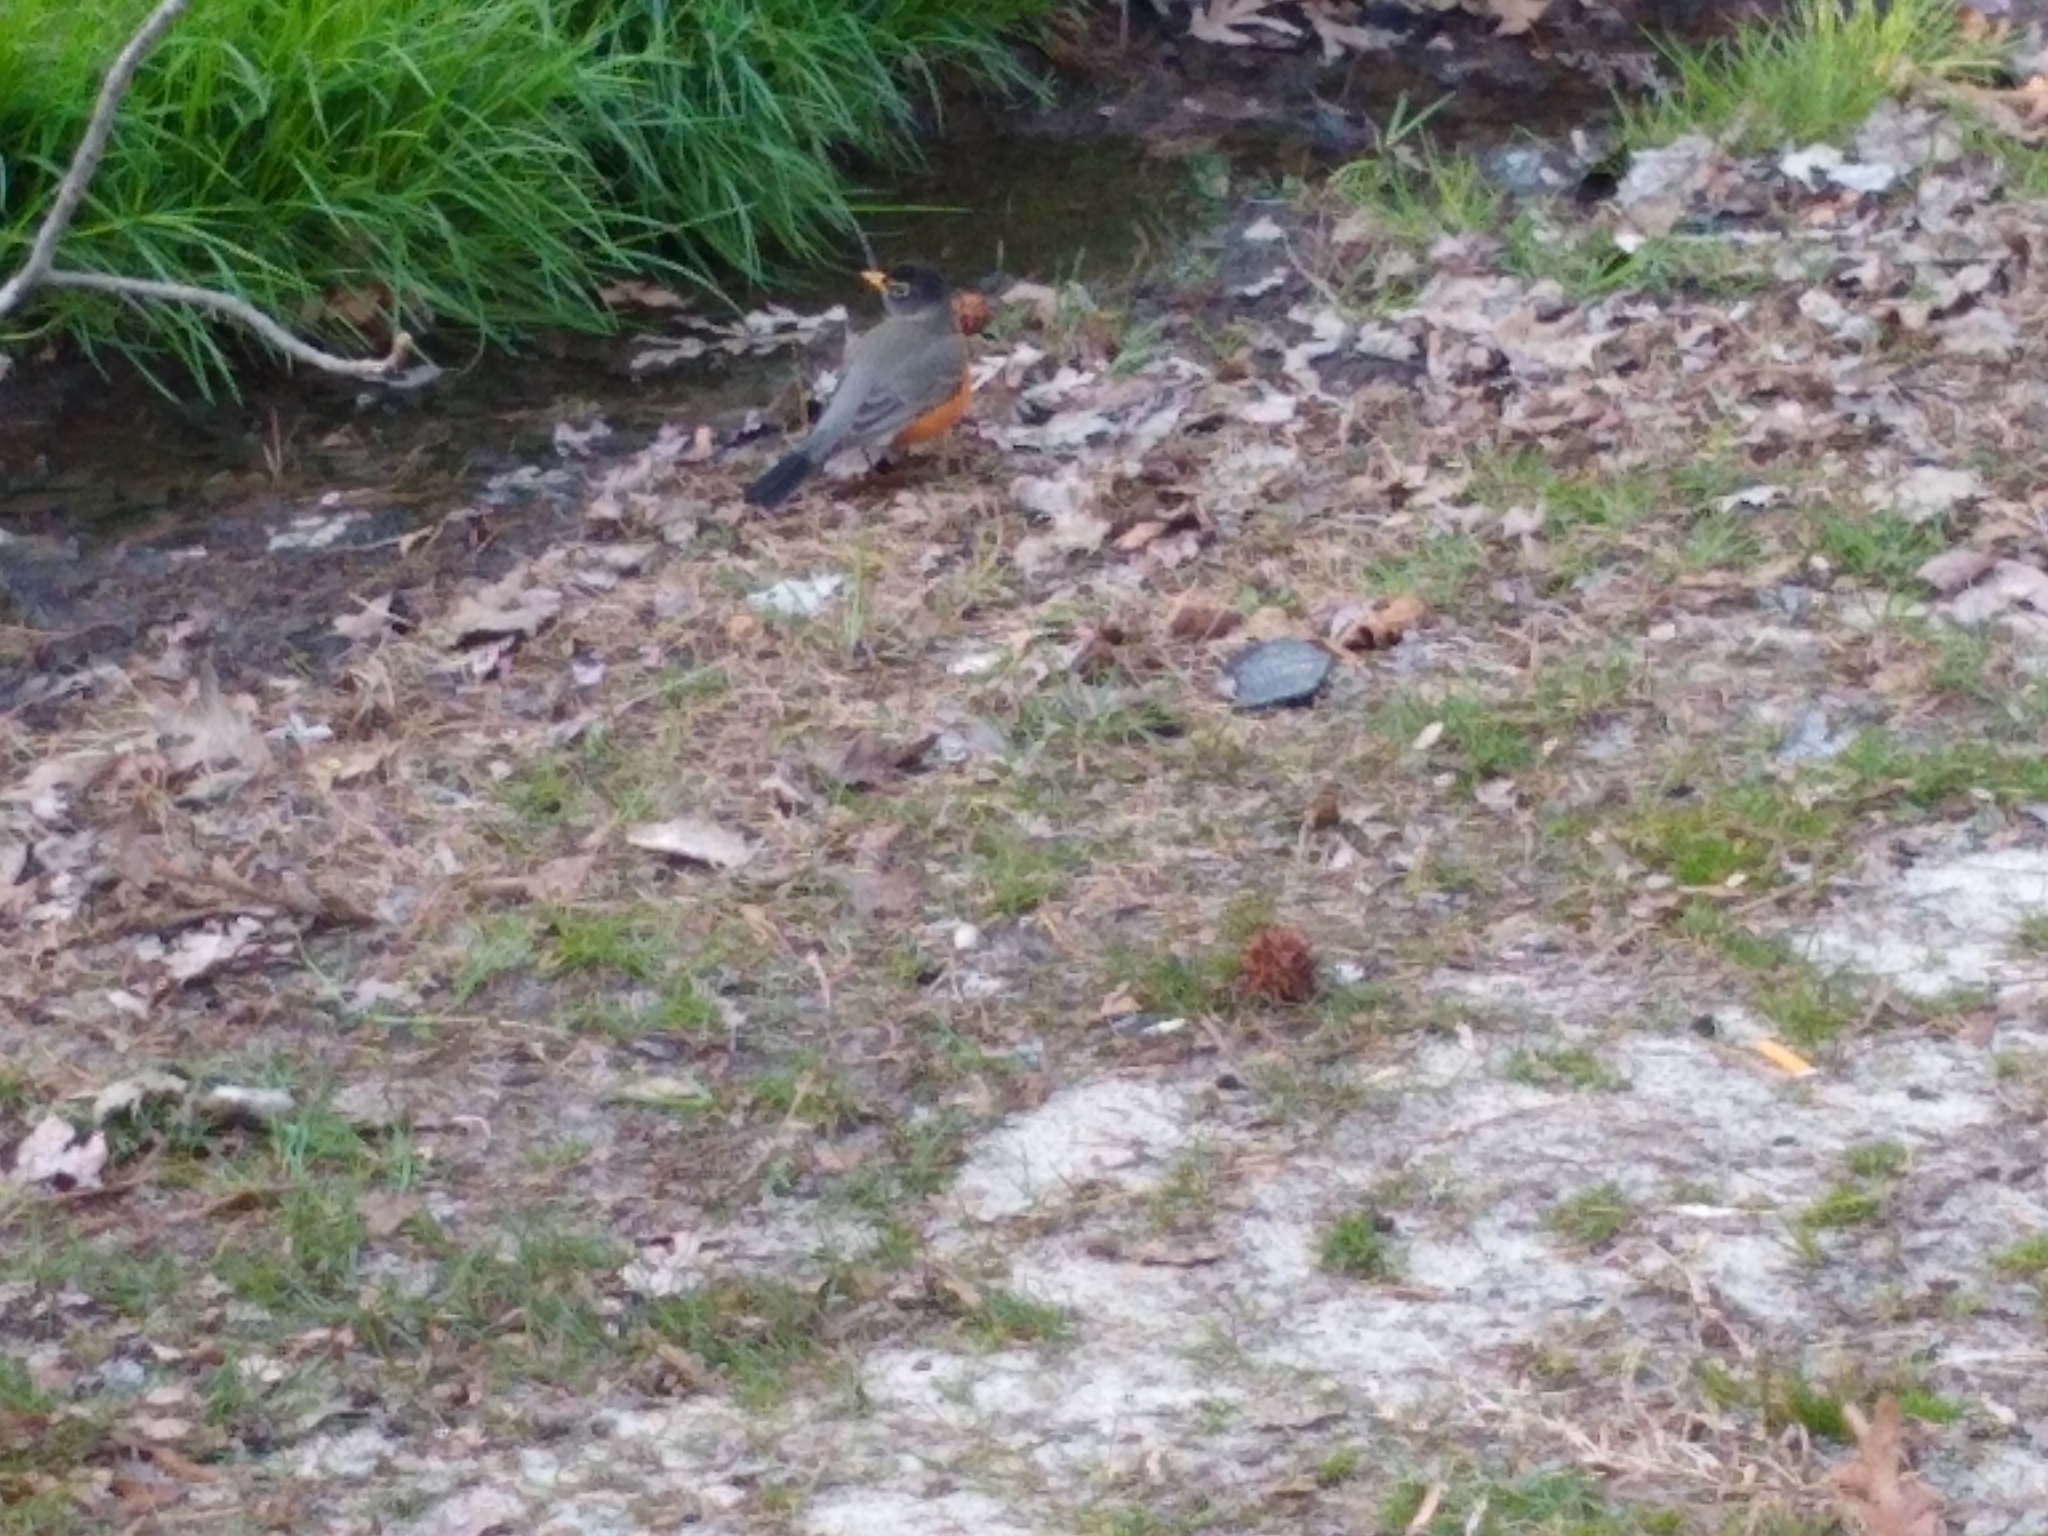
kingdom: Animalia
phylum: Chordata
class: Aves
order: Passeriformes
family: Turdidae
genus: Turdus
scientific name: Turdus migratorius
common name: American robin
